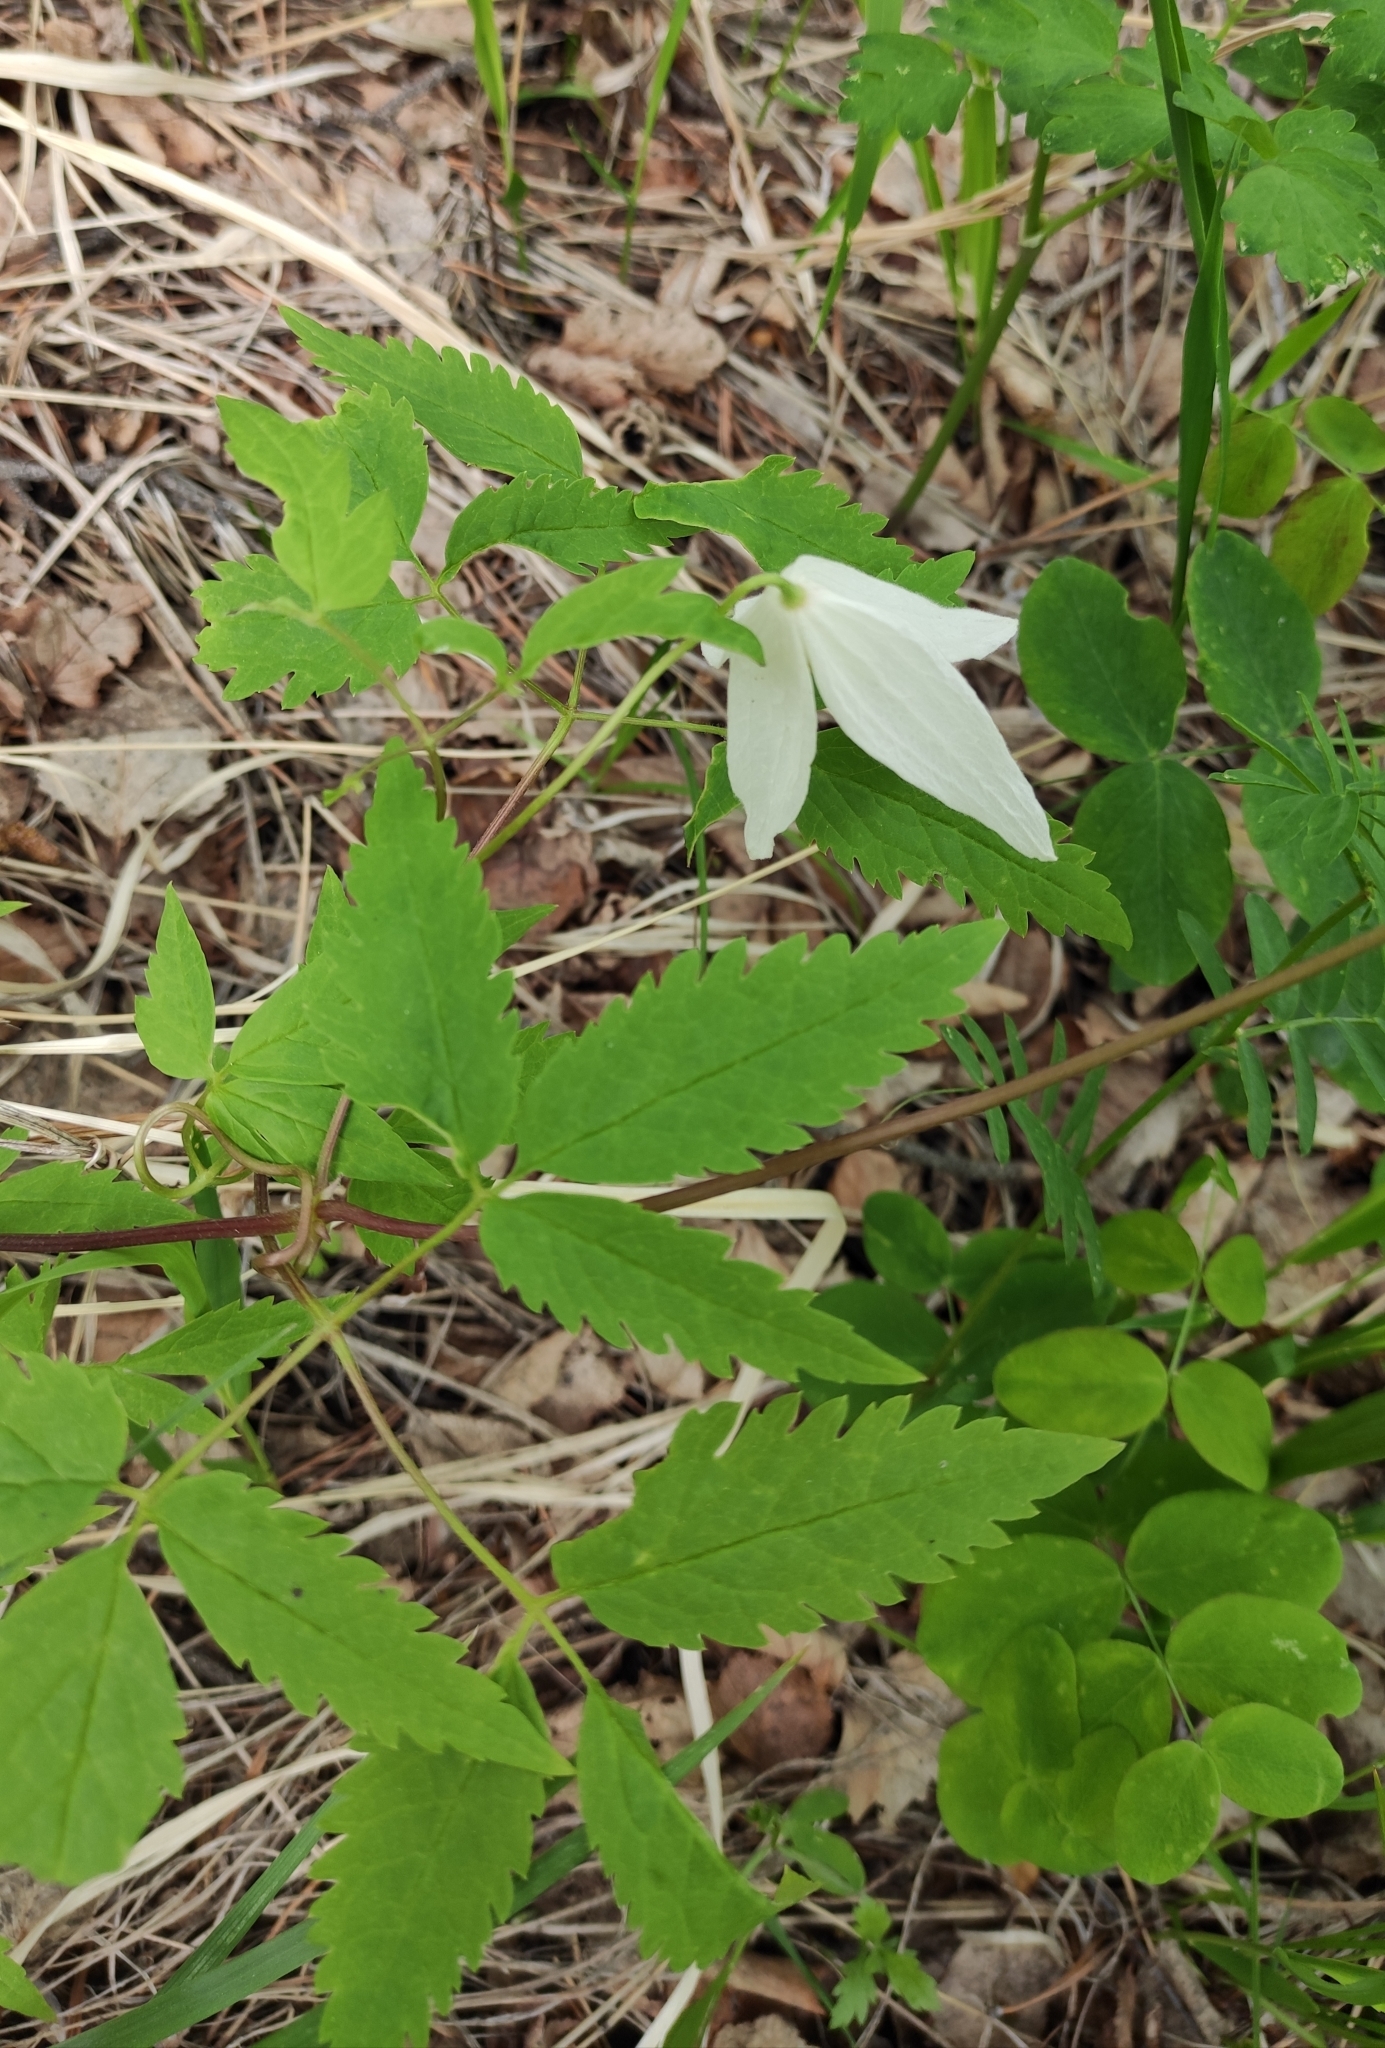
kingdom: Plantae
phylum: Tracheophyta
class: Magnoliopsida
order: Ranunculales
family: Ranunculaceae
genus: Clematis
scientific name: Clematis sibirica
